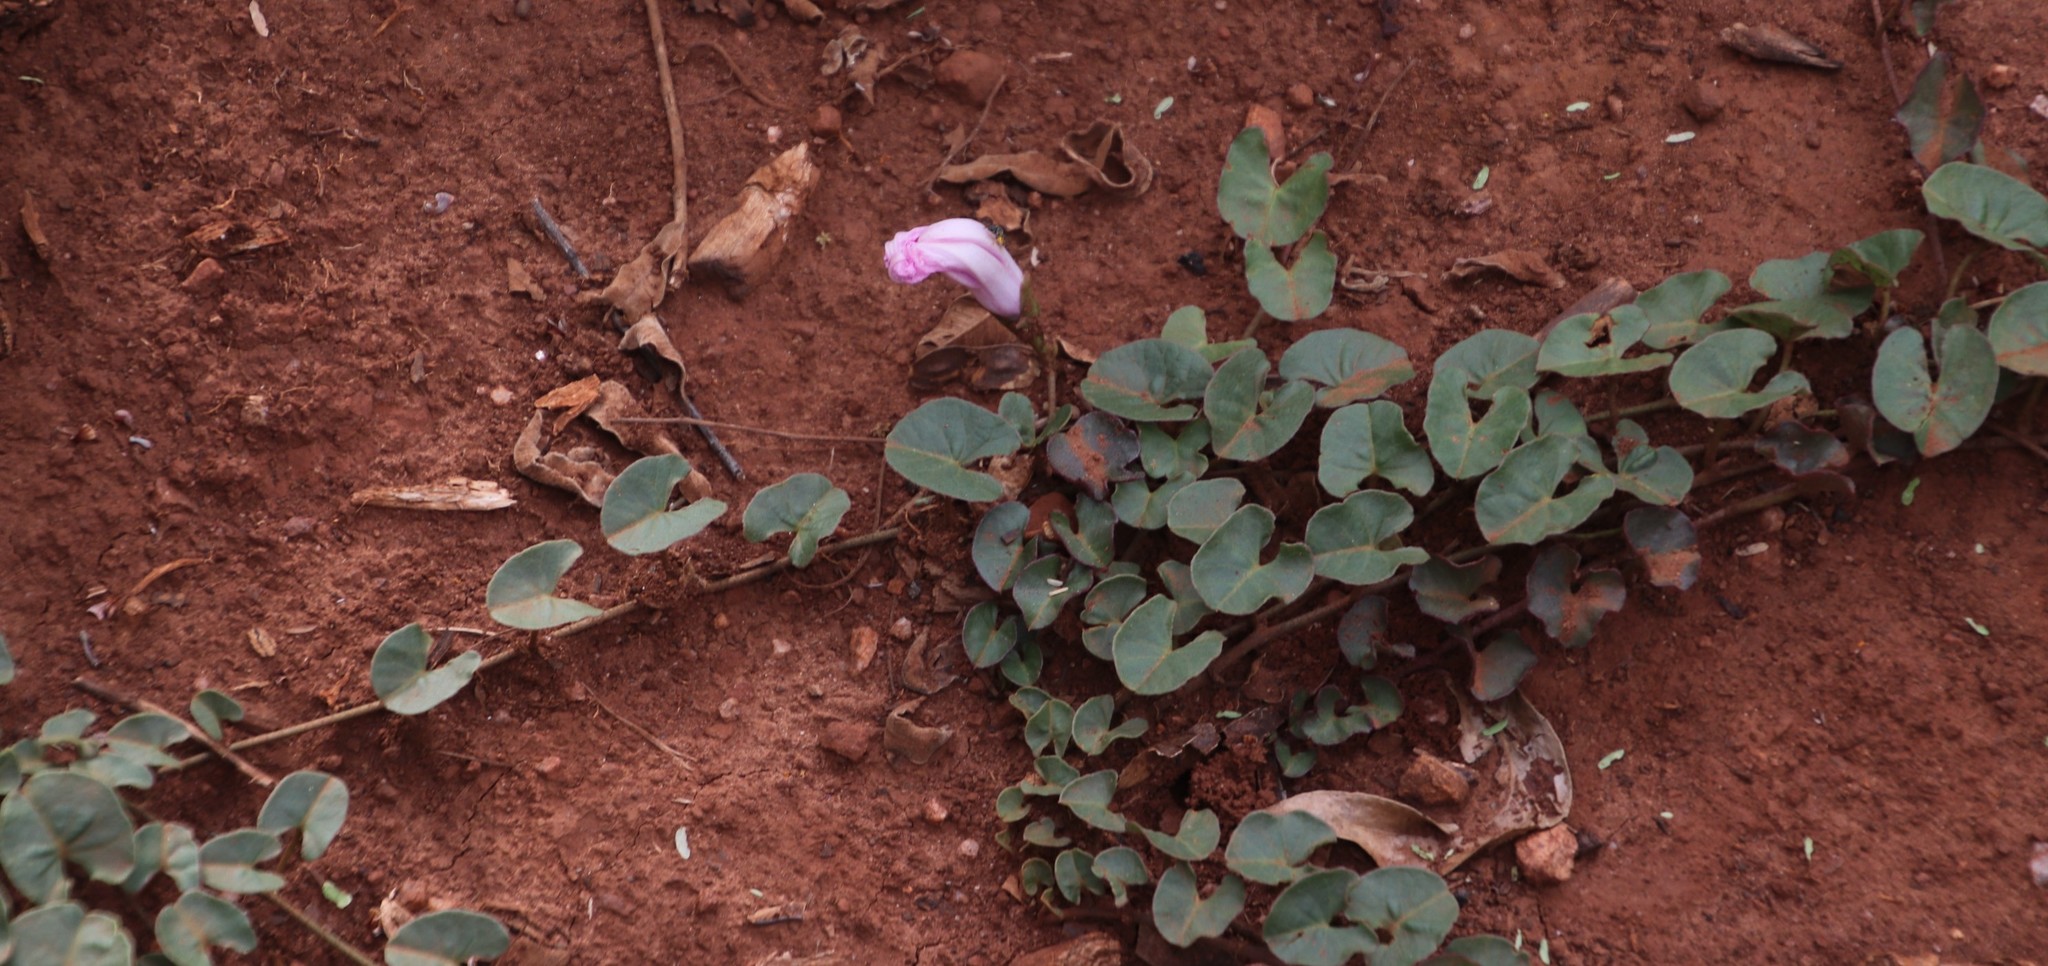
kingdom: Plantae
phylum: Tracheophyta
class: Magnoliopsida
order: Solanales
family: Convolvulaceae
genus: Ipomoea
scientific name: Ipomoea bathycolpos
